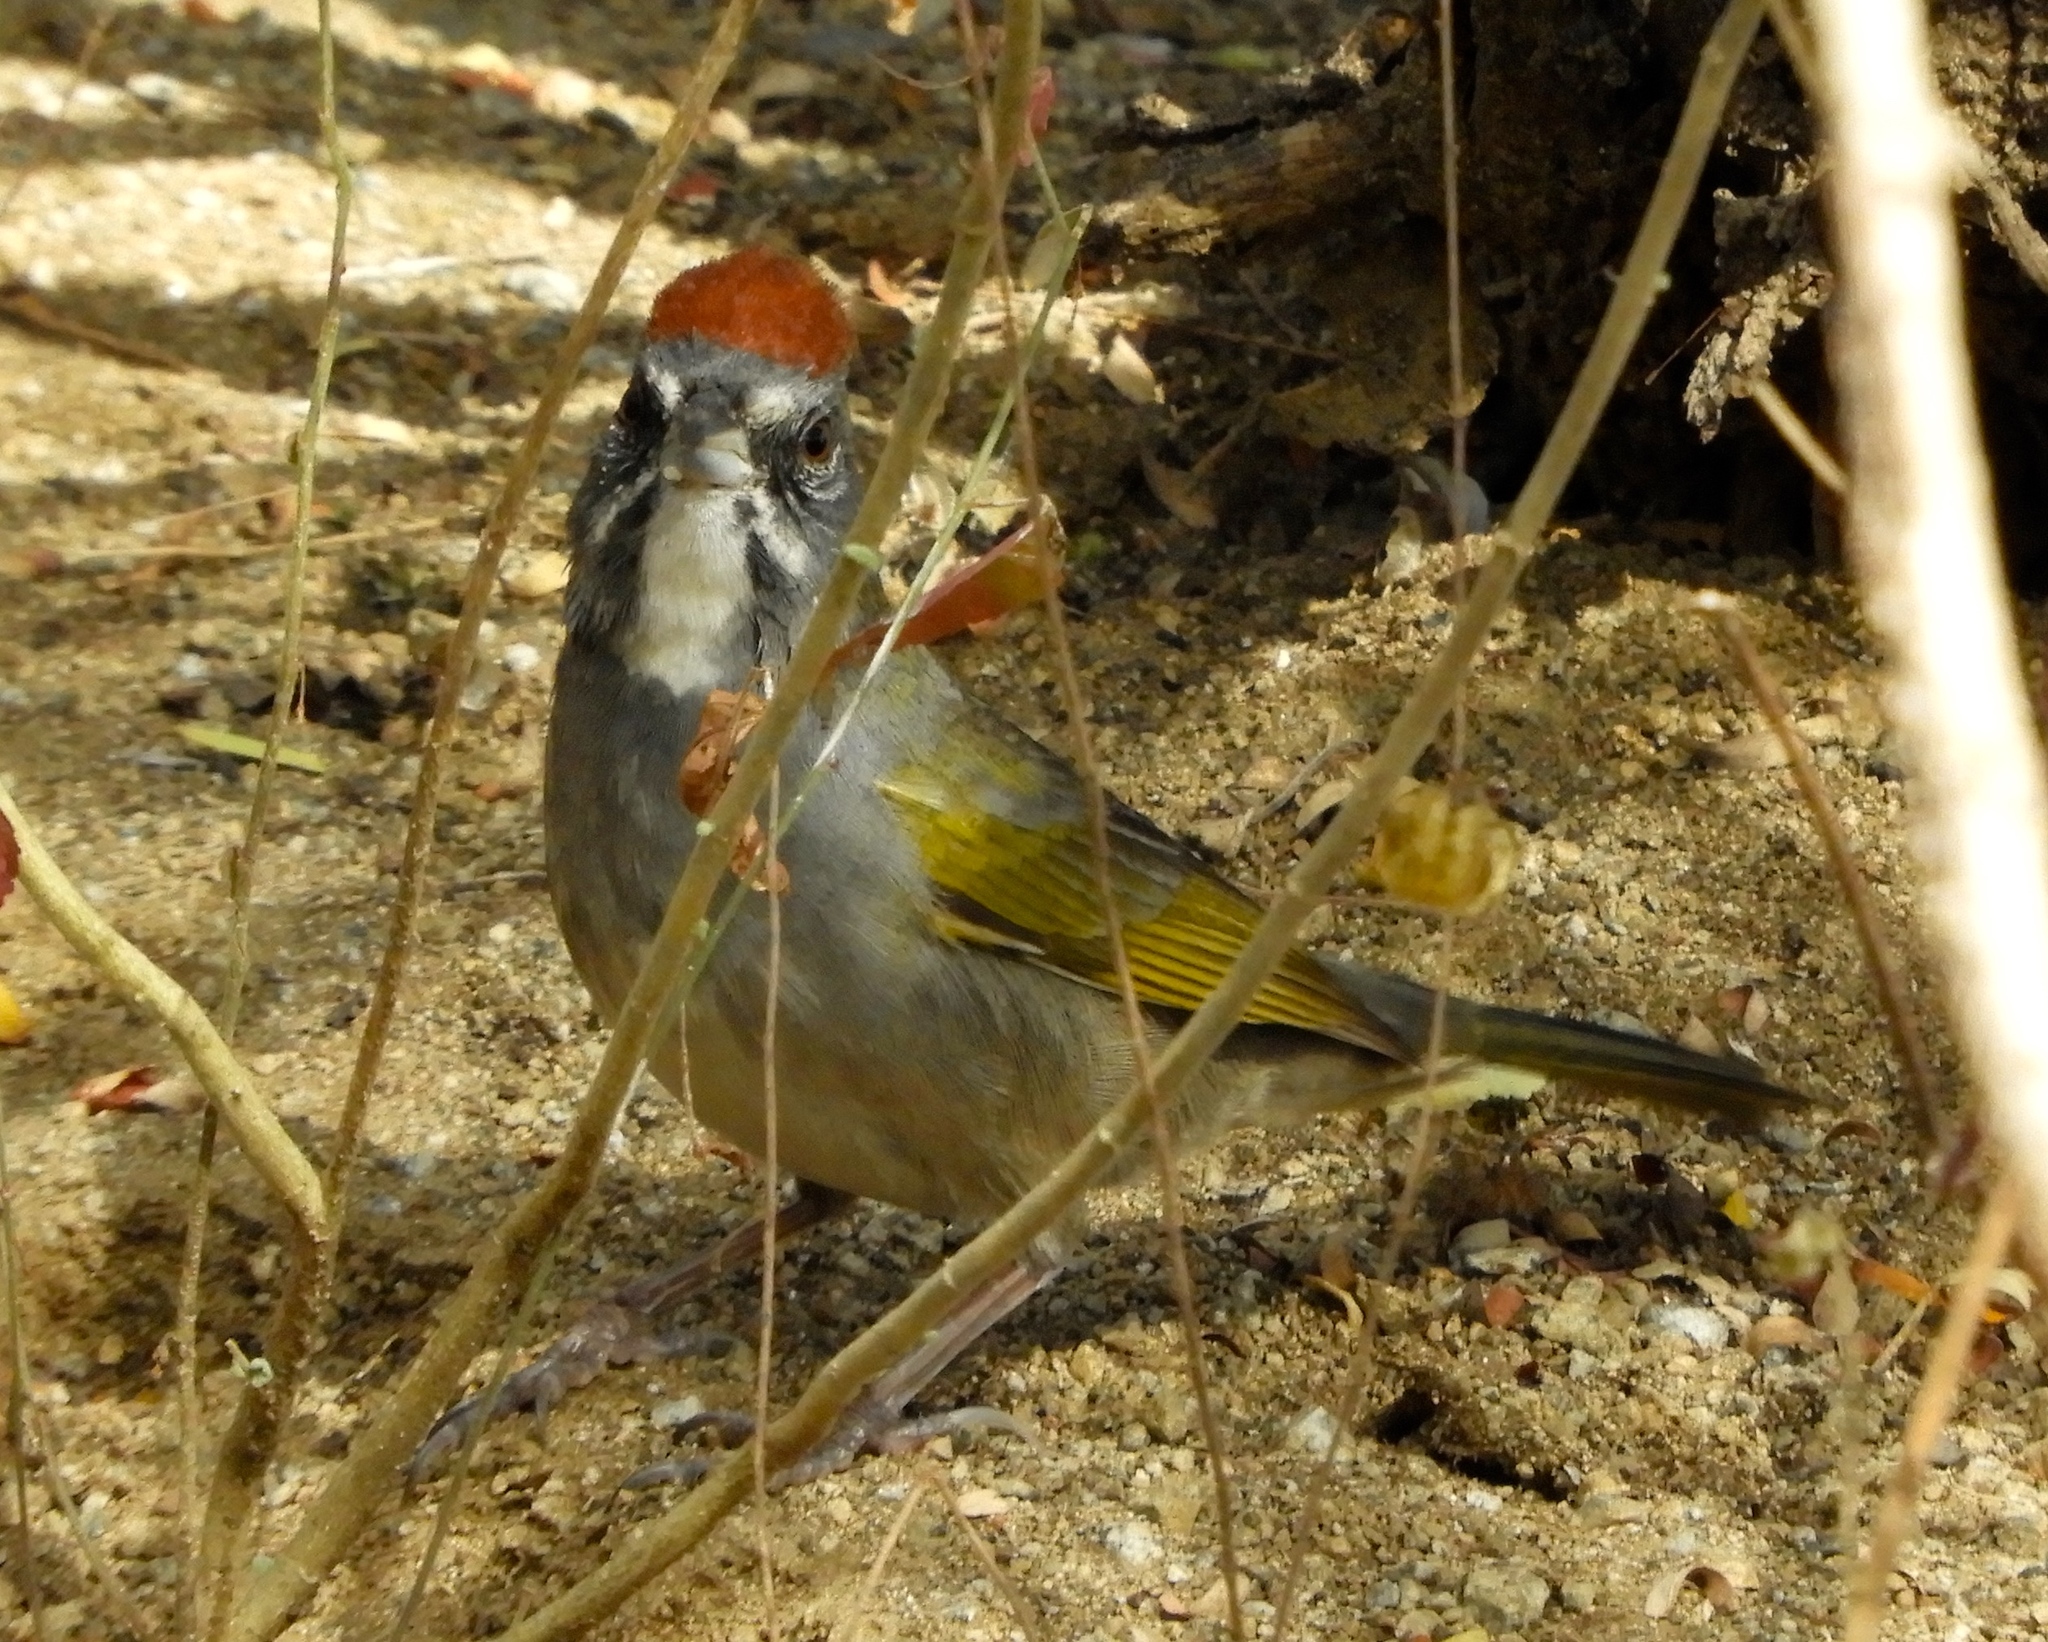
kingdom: Animalia
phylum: Chordata
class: Aves
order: Passeriformes
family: Passerellidae
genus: Pipilo
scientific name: Pipilo chlorurus
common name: Green-tailed towhee
